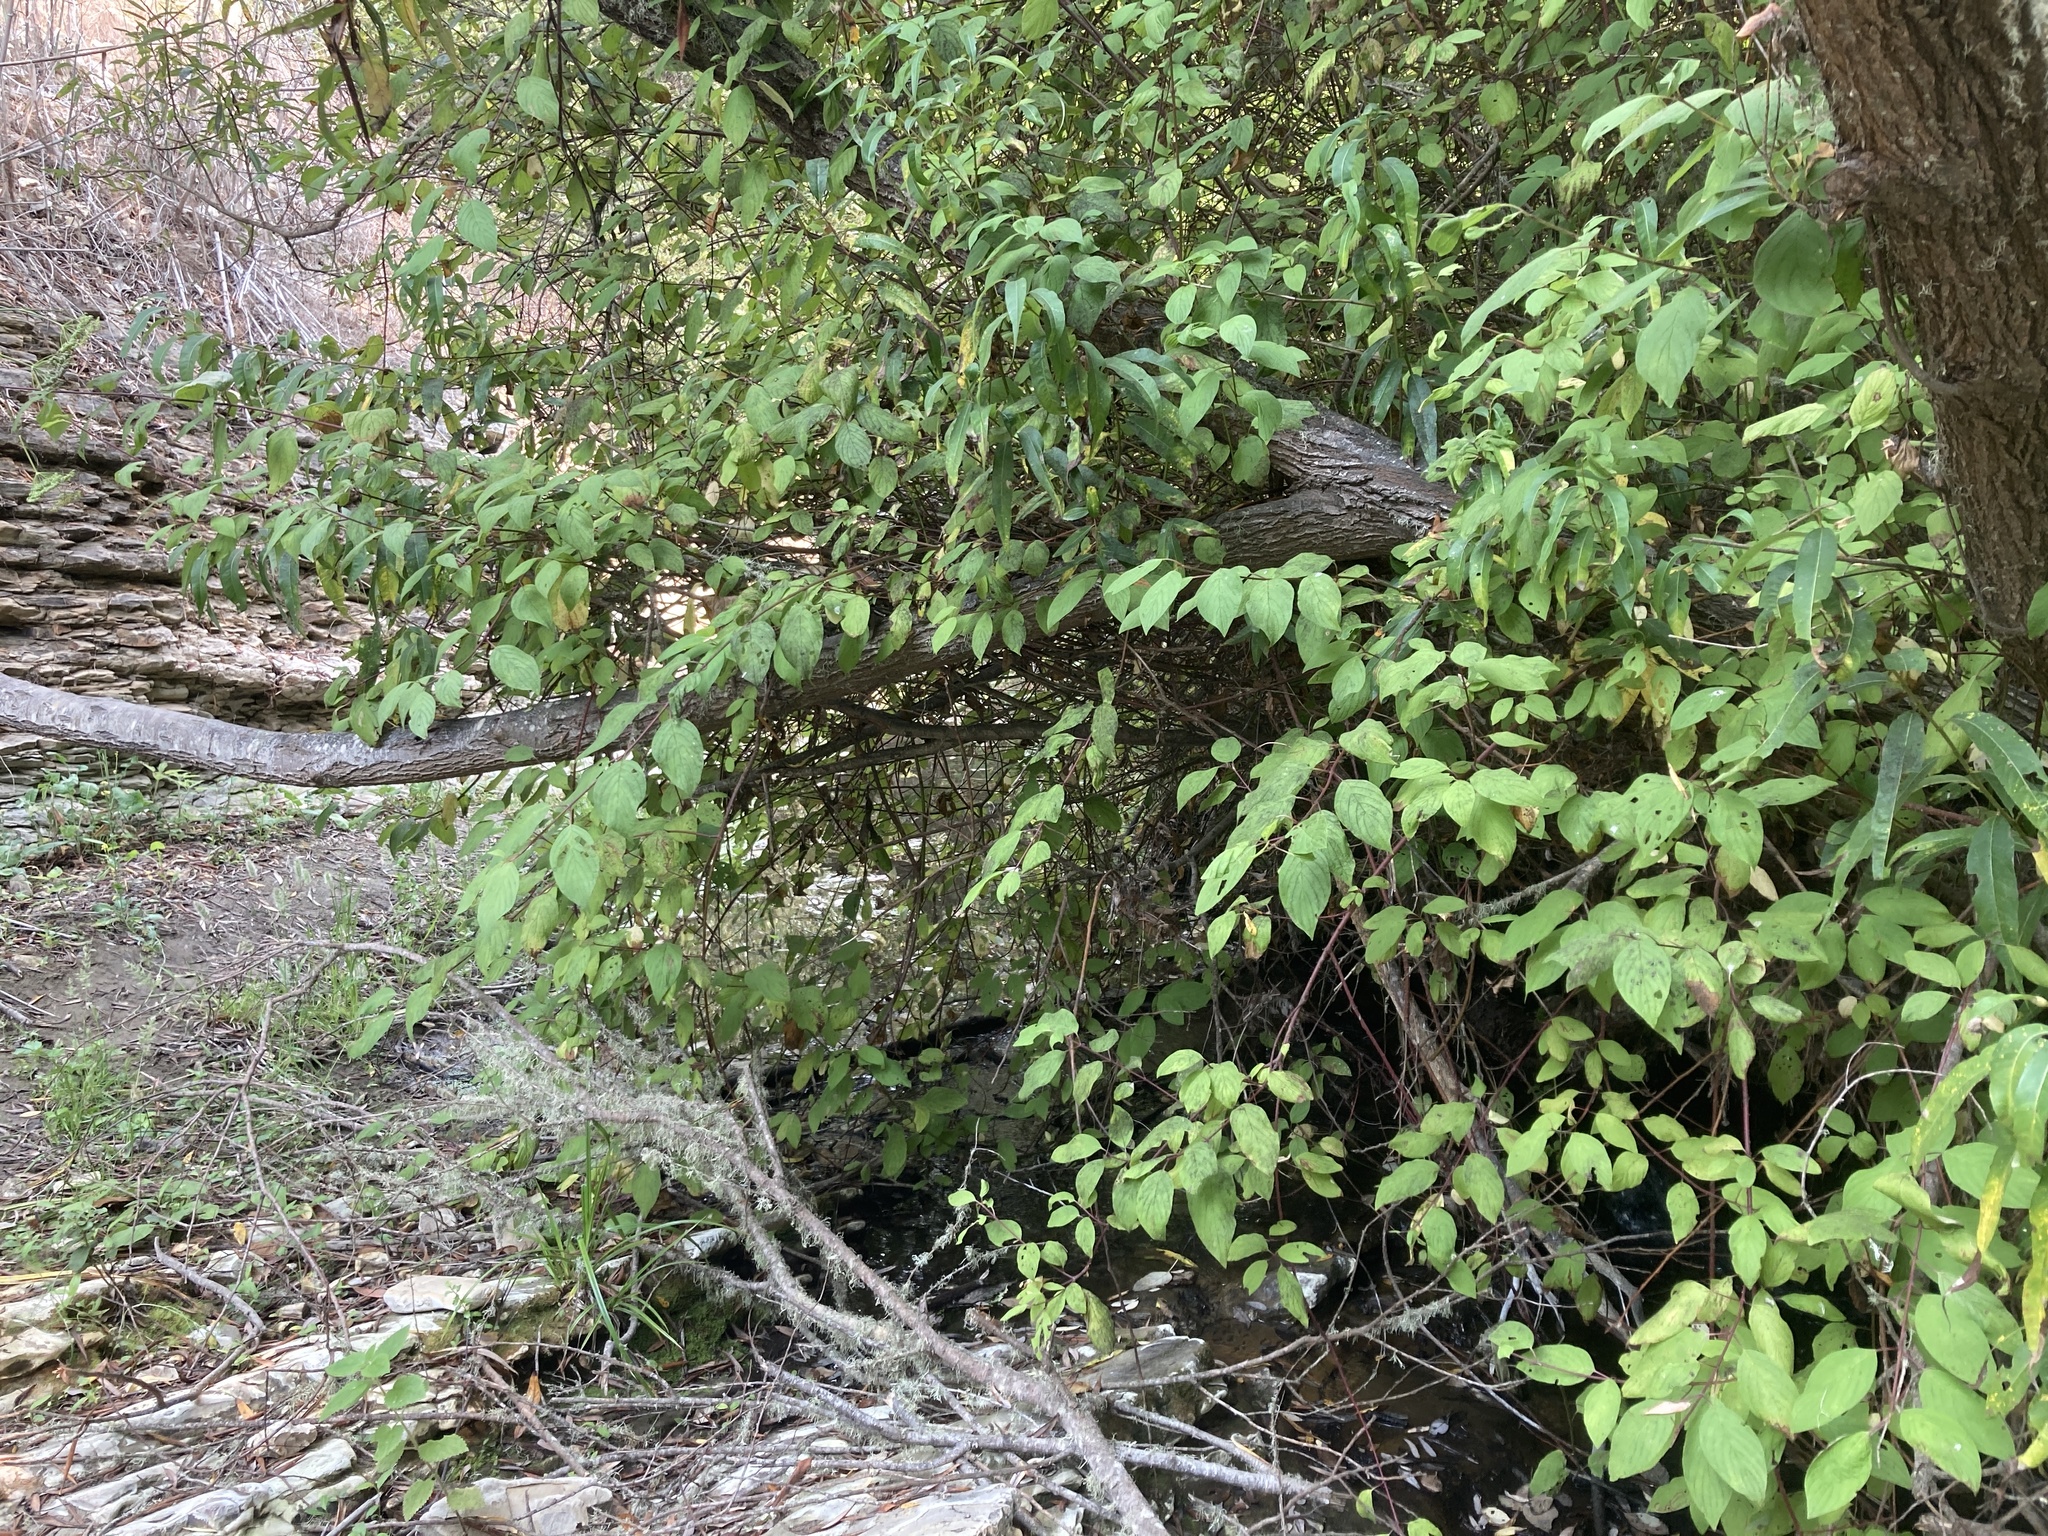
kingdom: Plantae
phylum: Tracheophyta
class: Magnoliopsida
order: Dipsacales
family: Caprifoliaceae
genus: Lonicera
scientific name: Lonicera involucrata
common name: Californian honeysuckle
